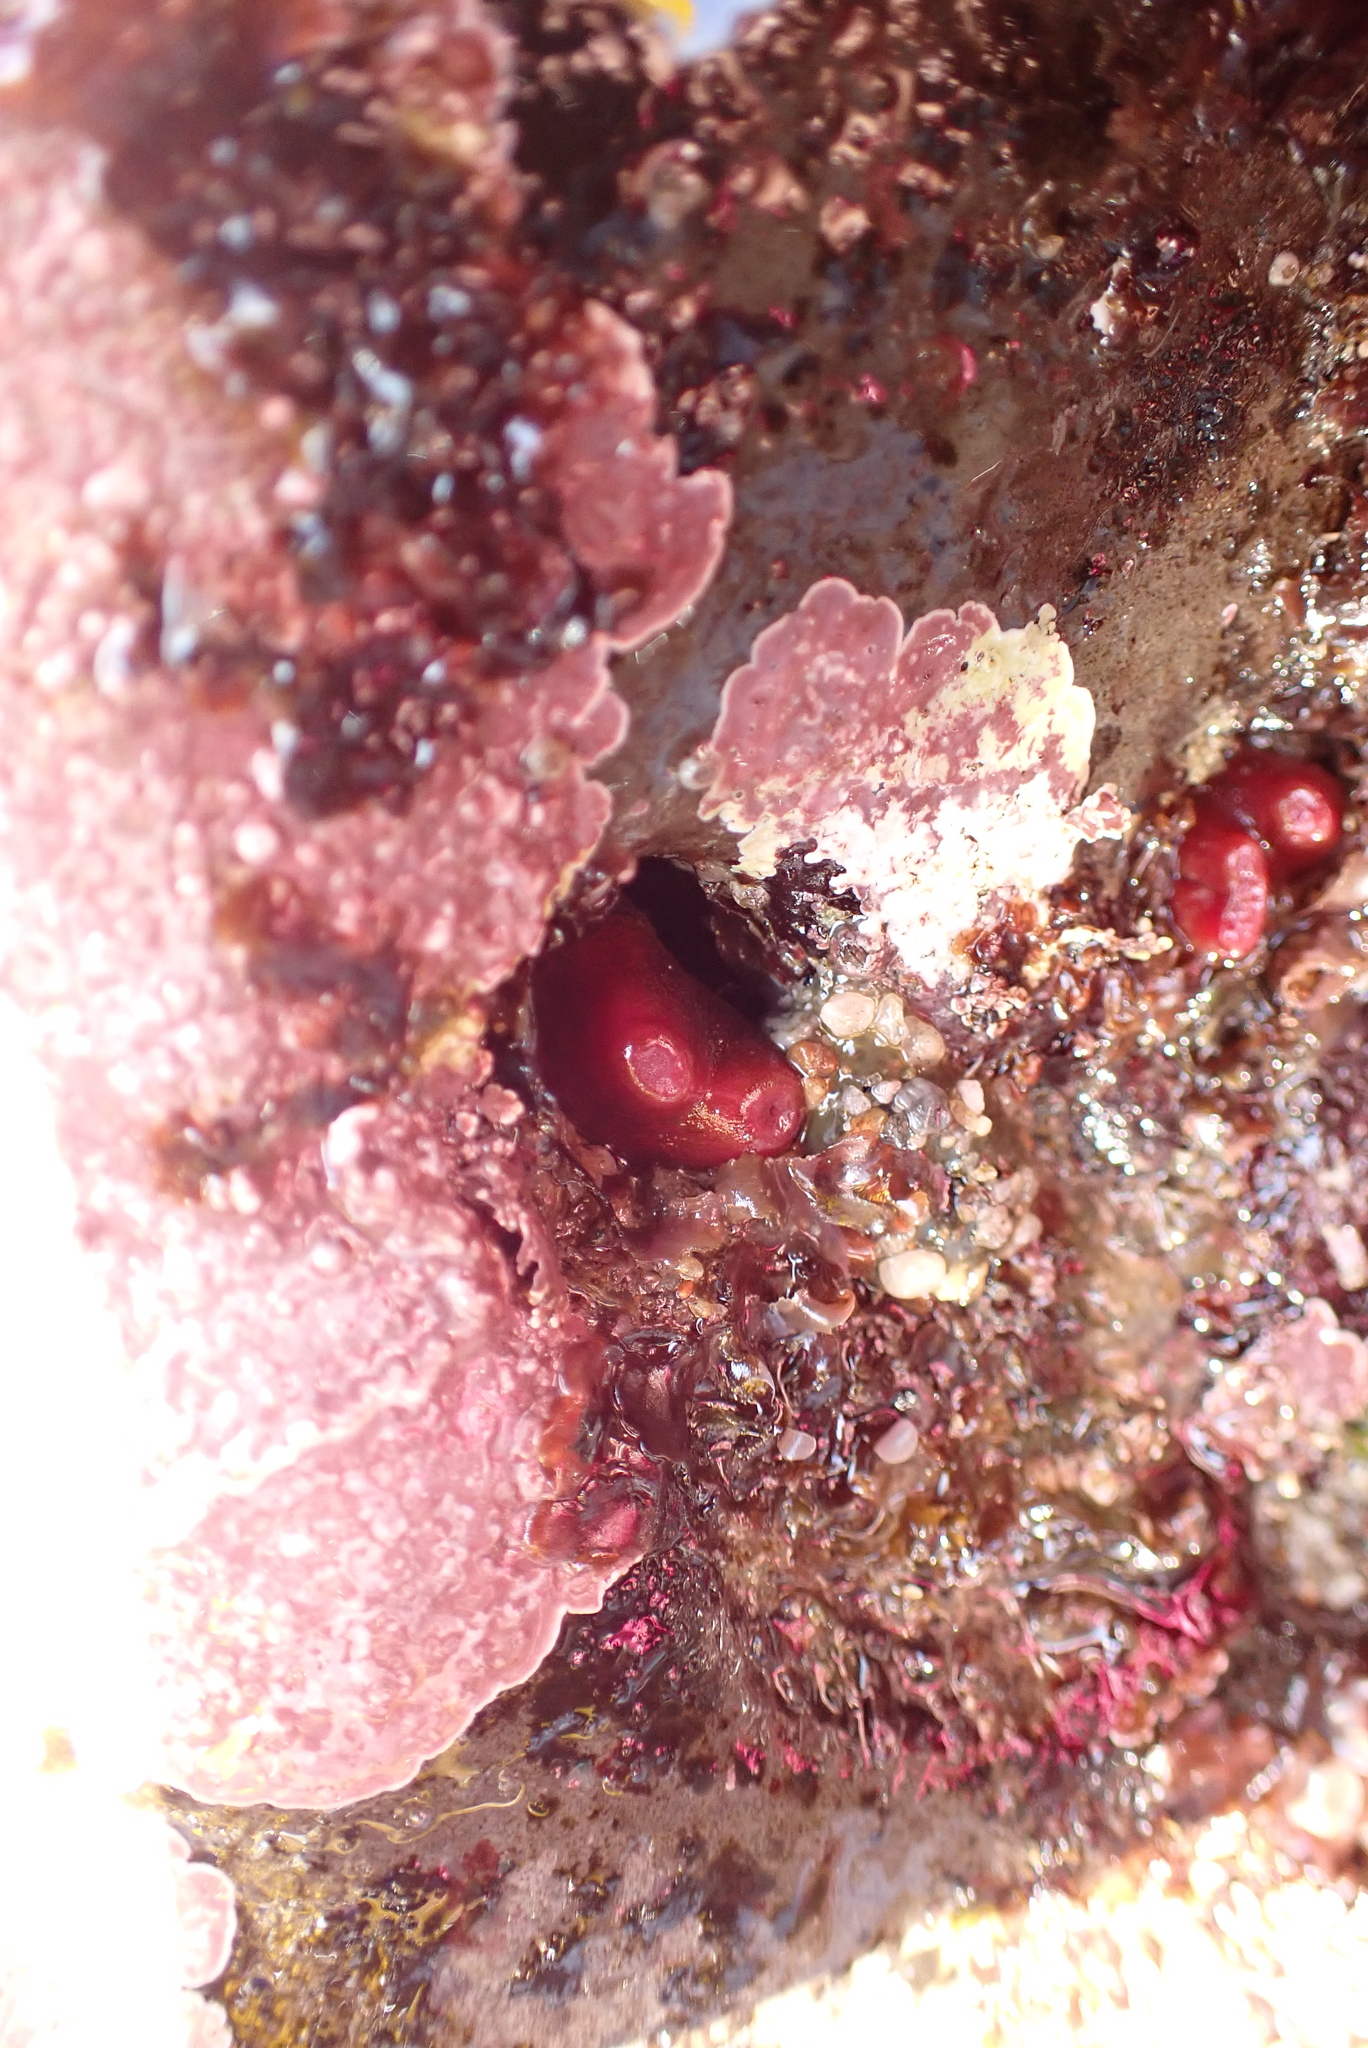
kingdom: Animalia
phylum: Mollusca
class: Bivalvia
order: Adapedonta
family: Hiatellidae
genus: Hiatella
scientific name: Hiatella arctica
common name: Arctic hiatella
